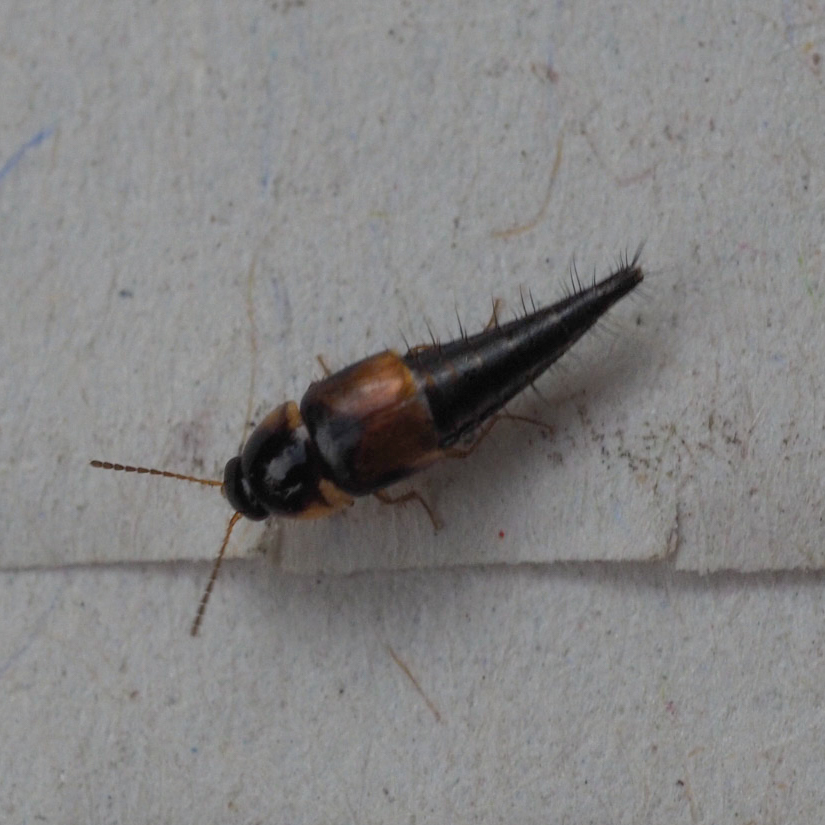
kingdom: Animalia
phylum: Arthropoda
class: Insecta
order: Coleoptera
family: Staphylinidae
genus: Tachyporus
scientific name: Tachyporus hypnorum
